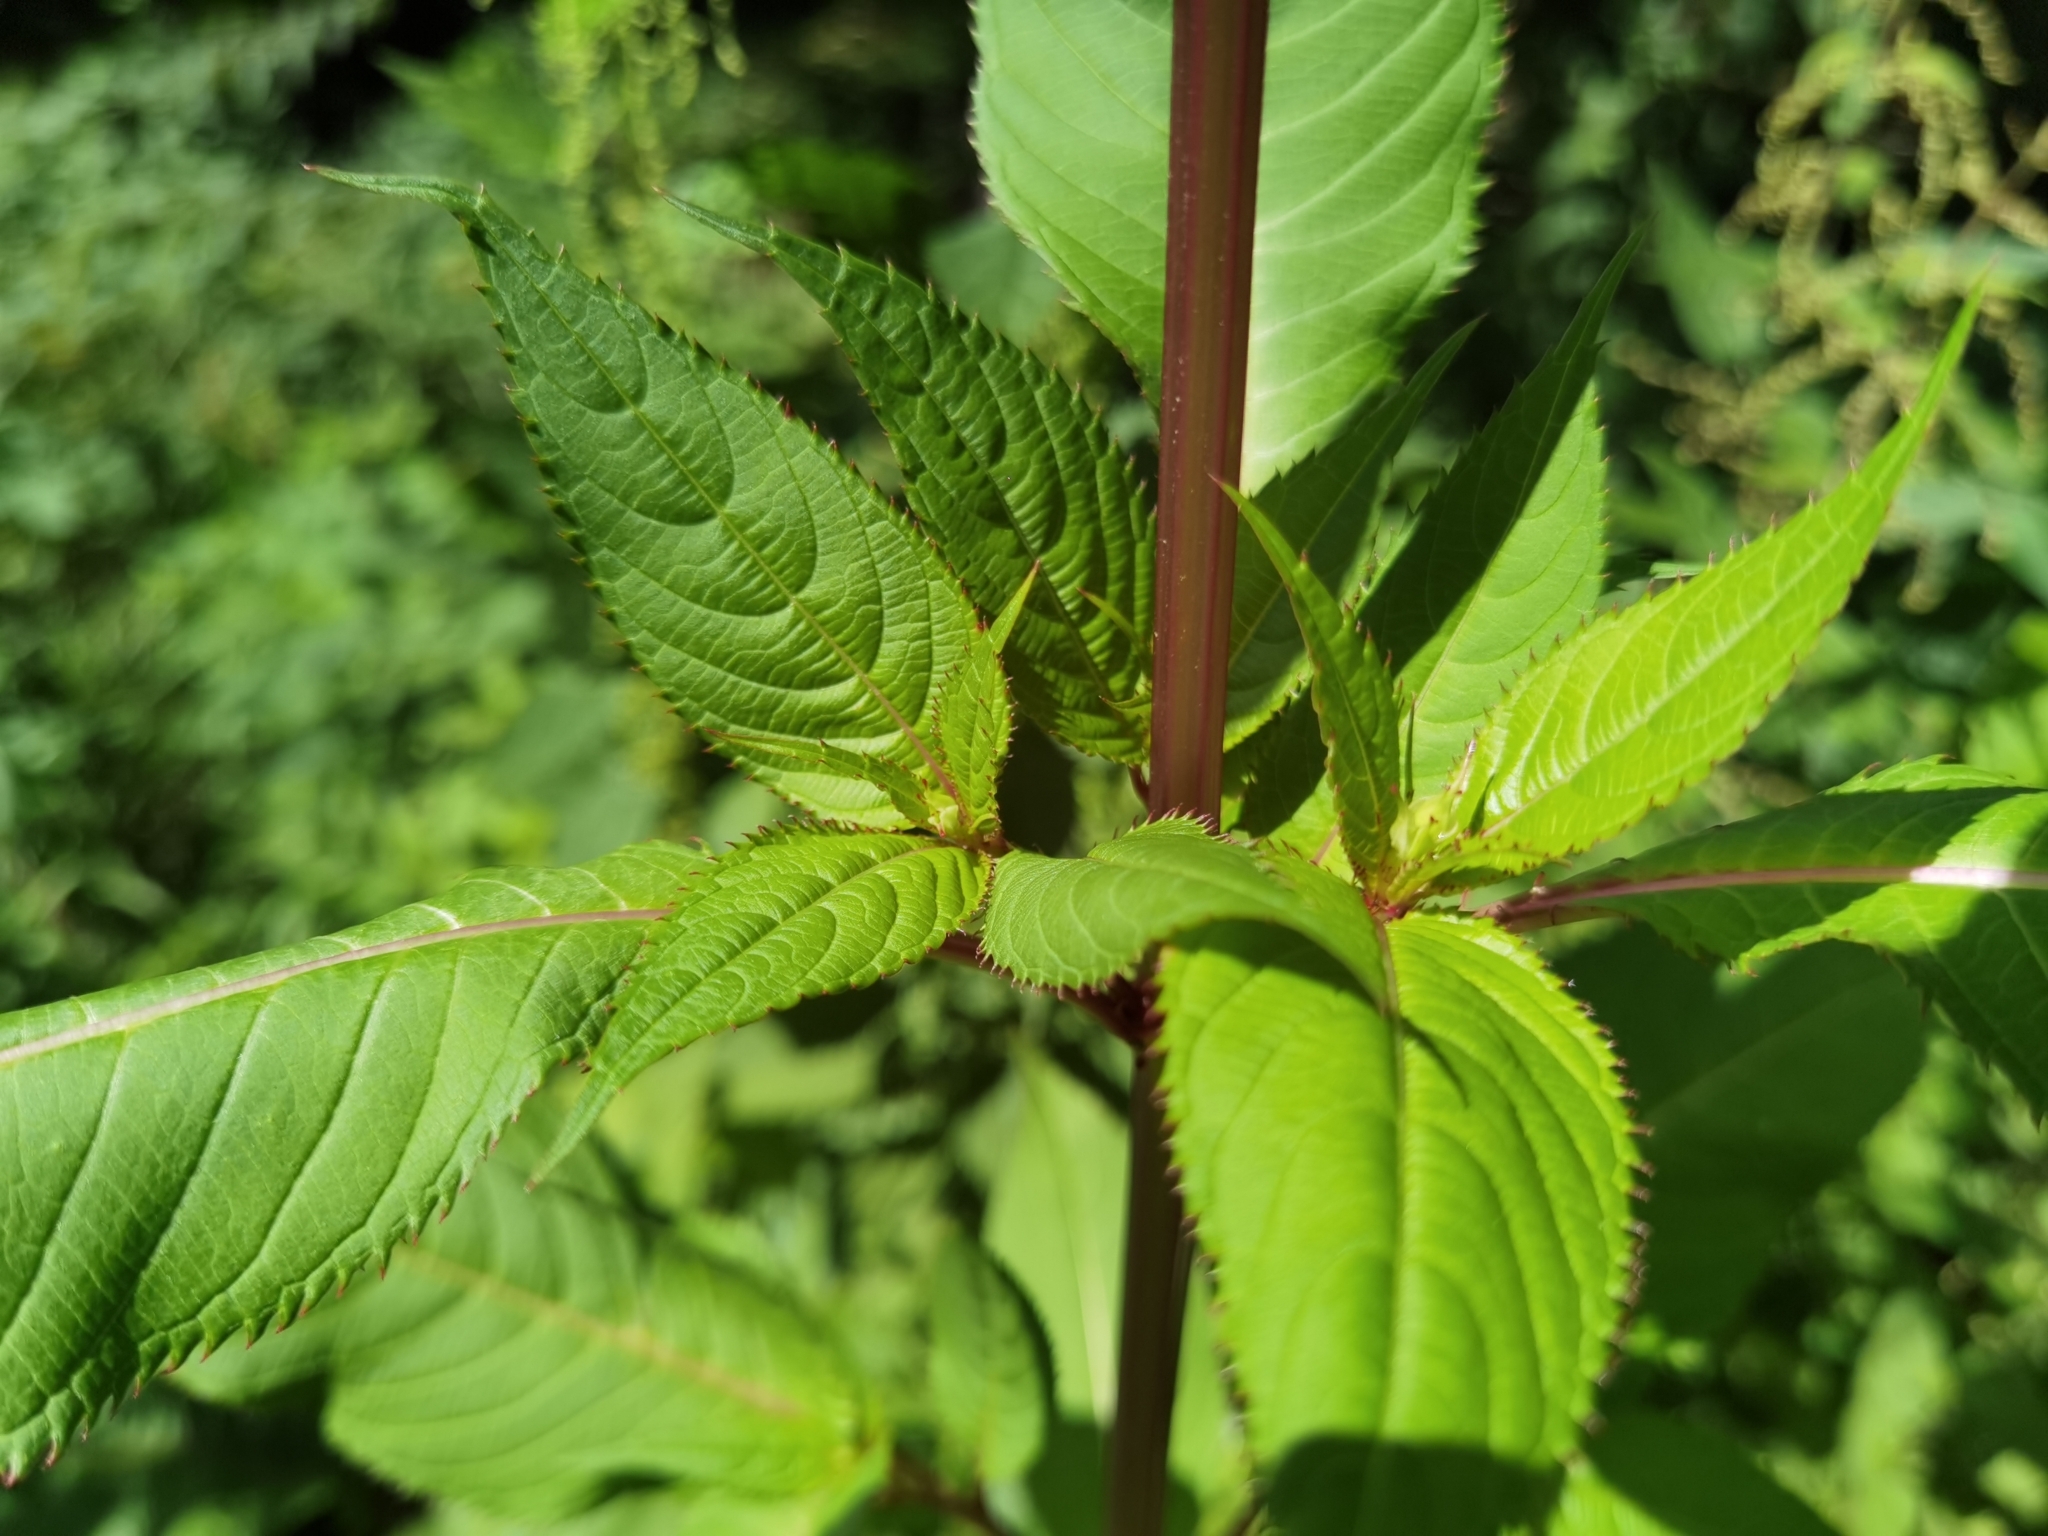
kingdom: Plantae
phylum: Tracheophyta
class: Magnoliopsida
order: Ericales
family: Balsaminaceae
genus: Impatiens
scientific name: Impatiens glandulifera
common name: Himalayan balsam
